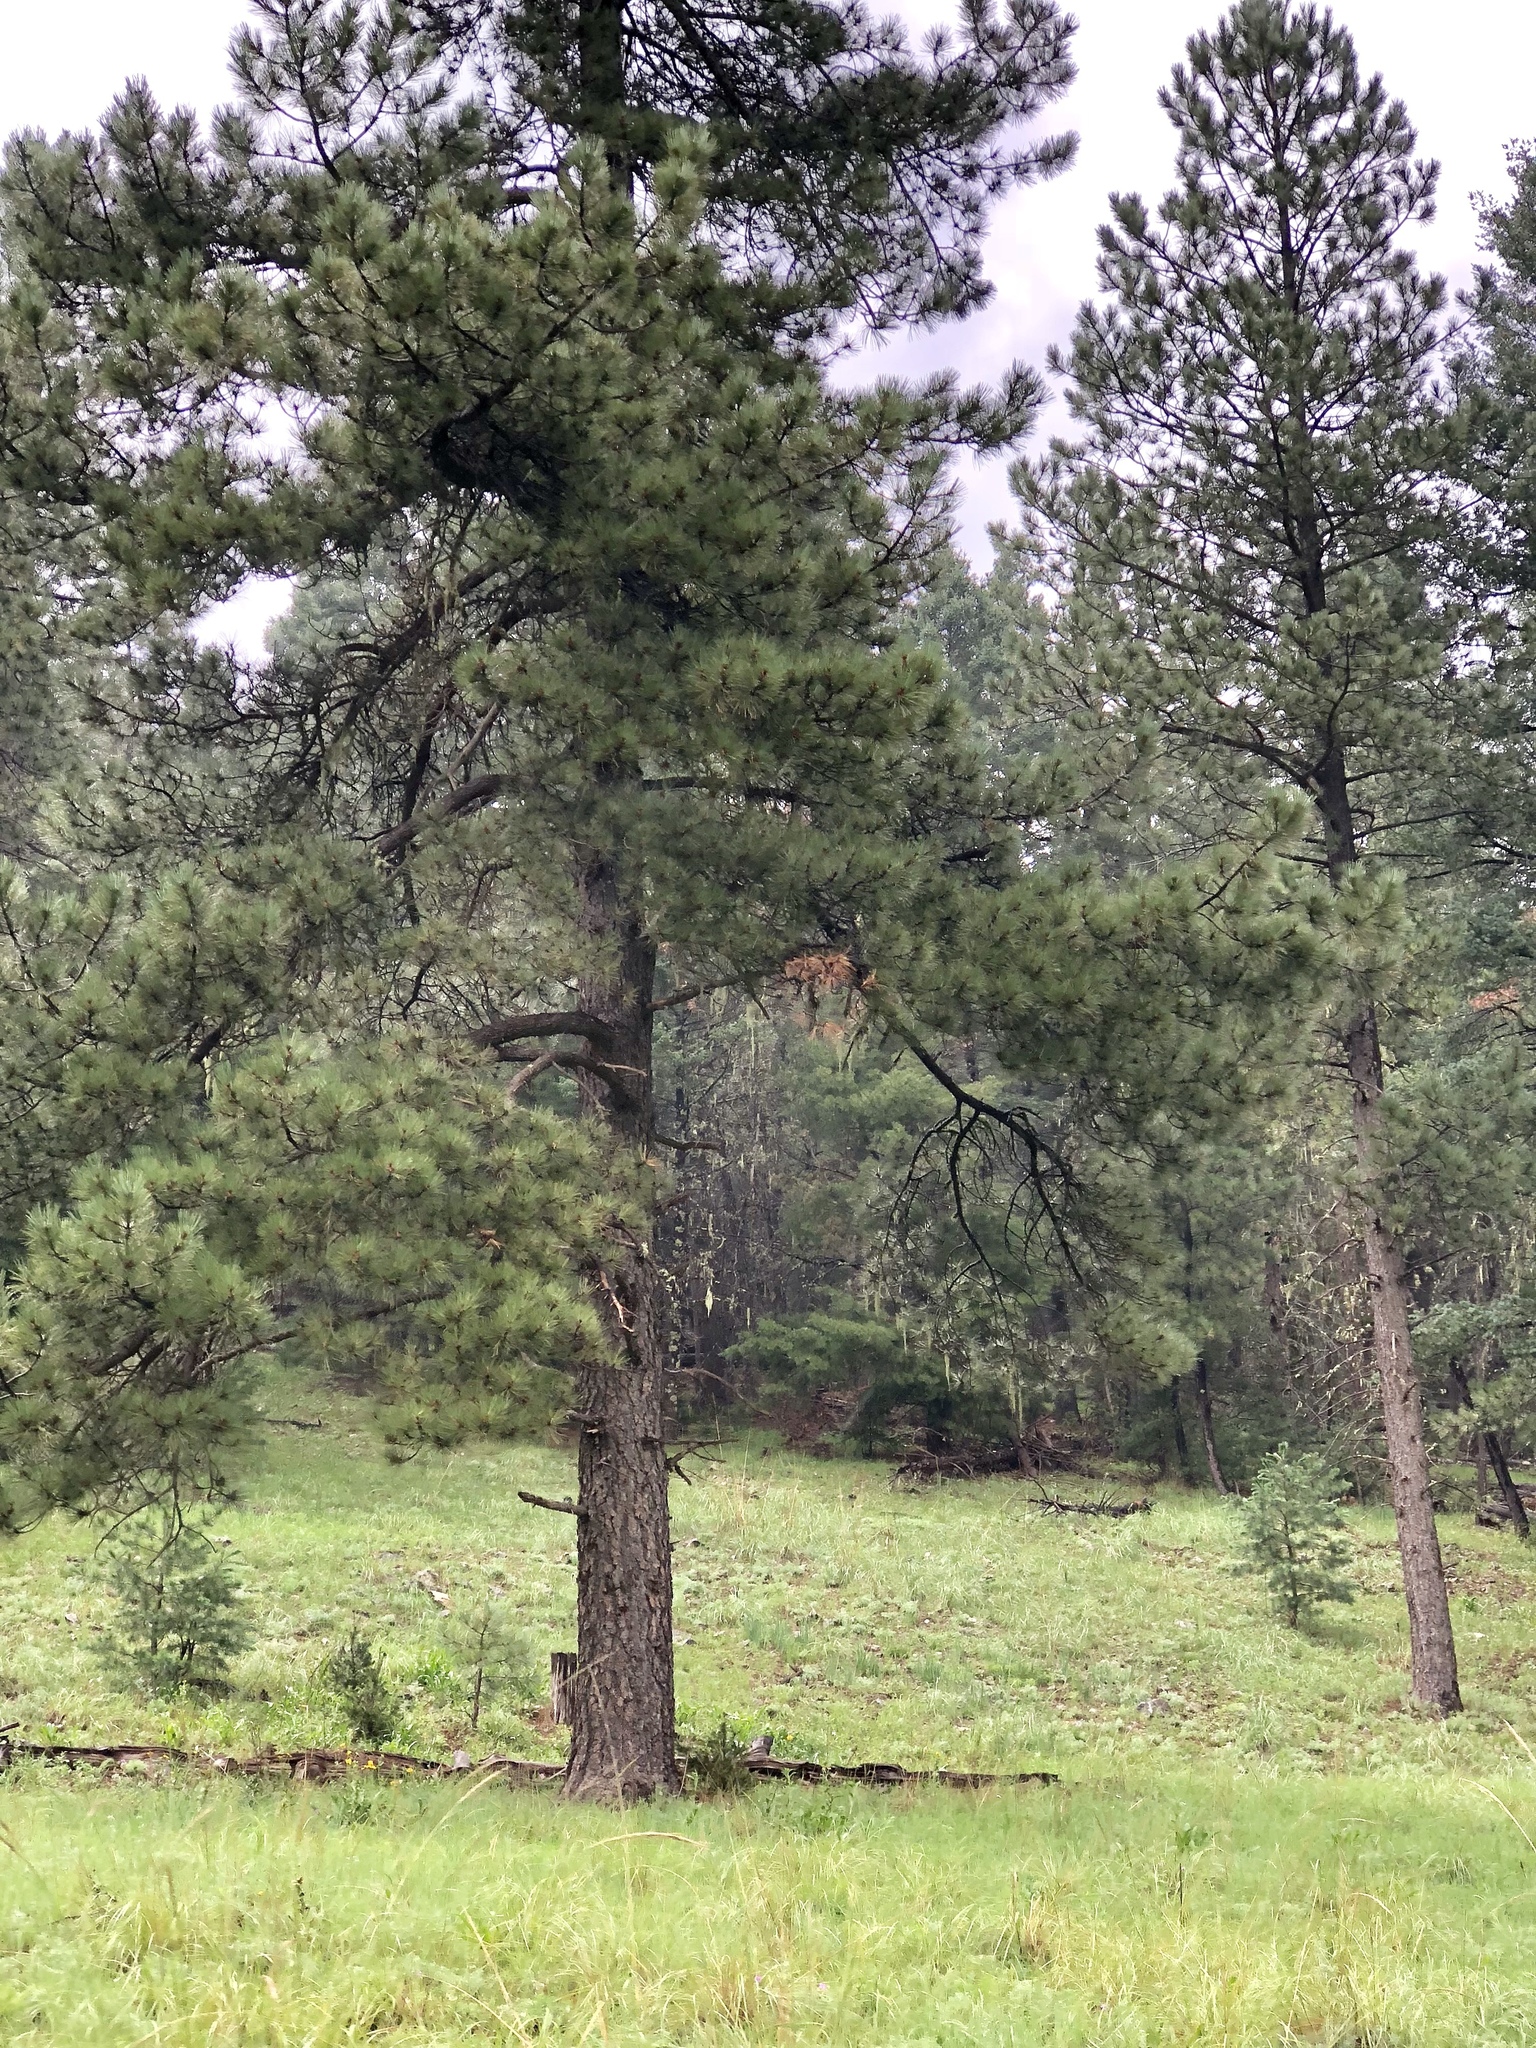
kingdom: Plantae
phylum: Tracheophyta
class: Pinopsida
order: Pinales
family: Pinaceae
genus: Pinus
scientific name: Pinus ponderosa
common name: Western yellow-pine
